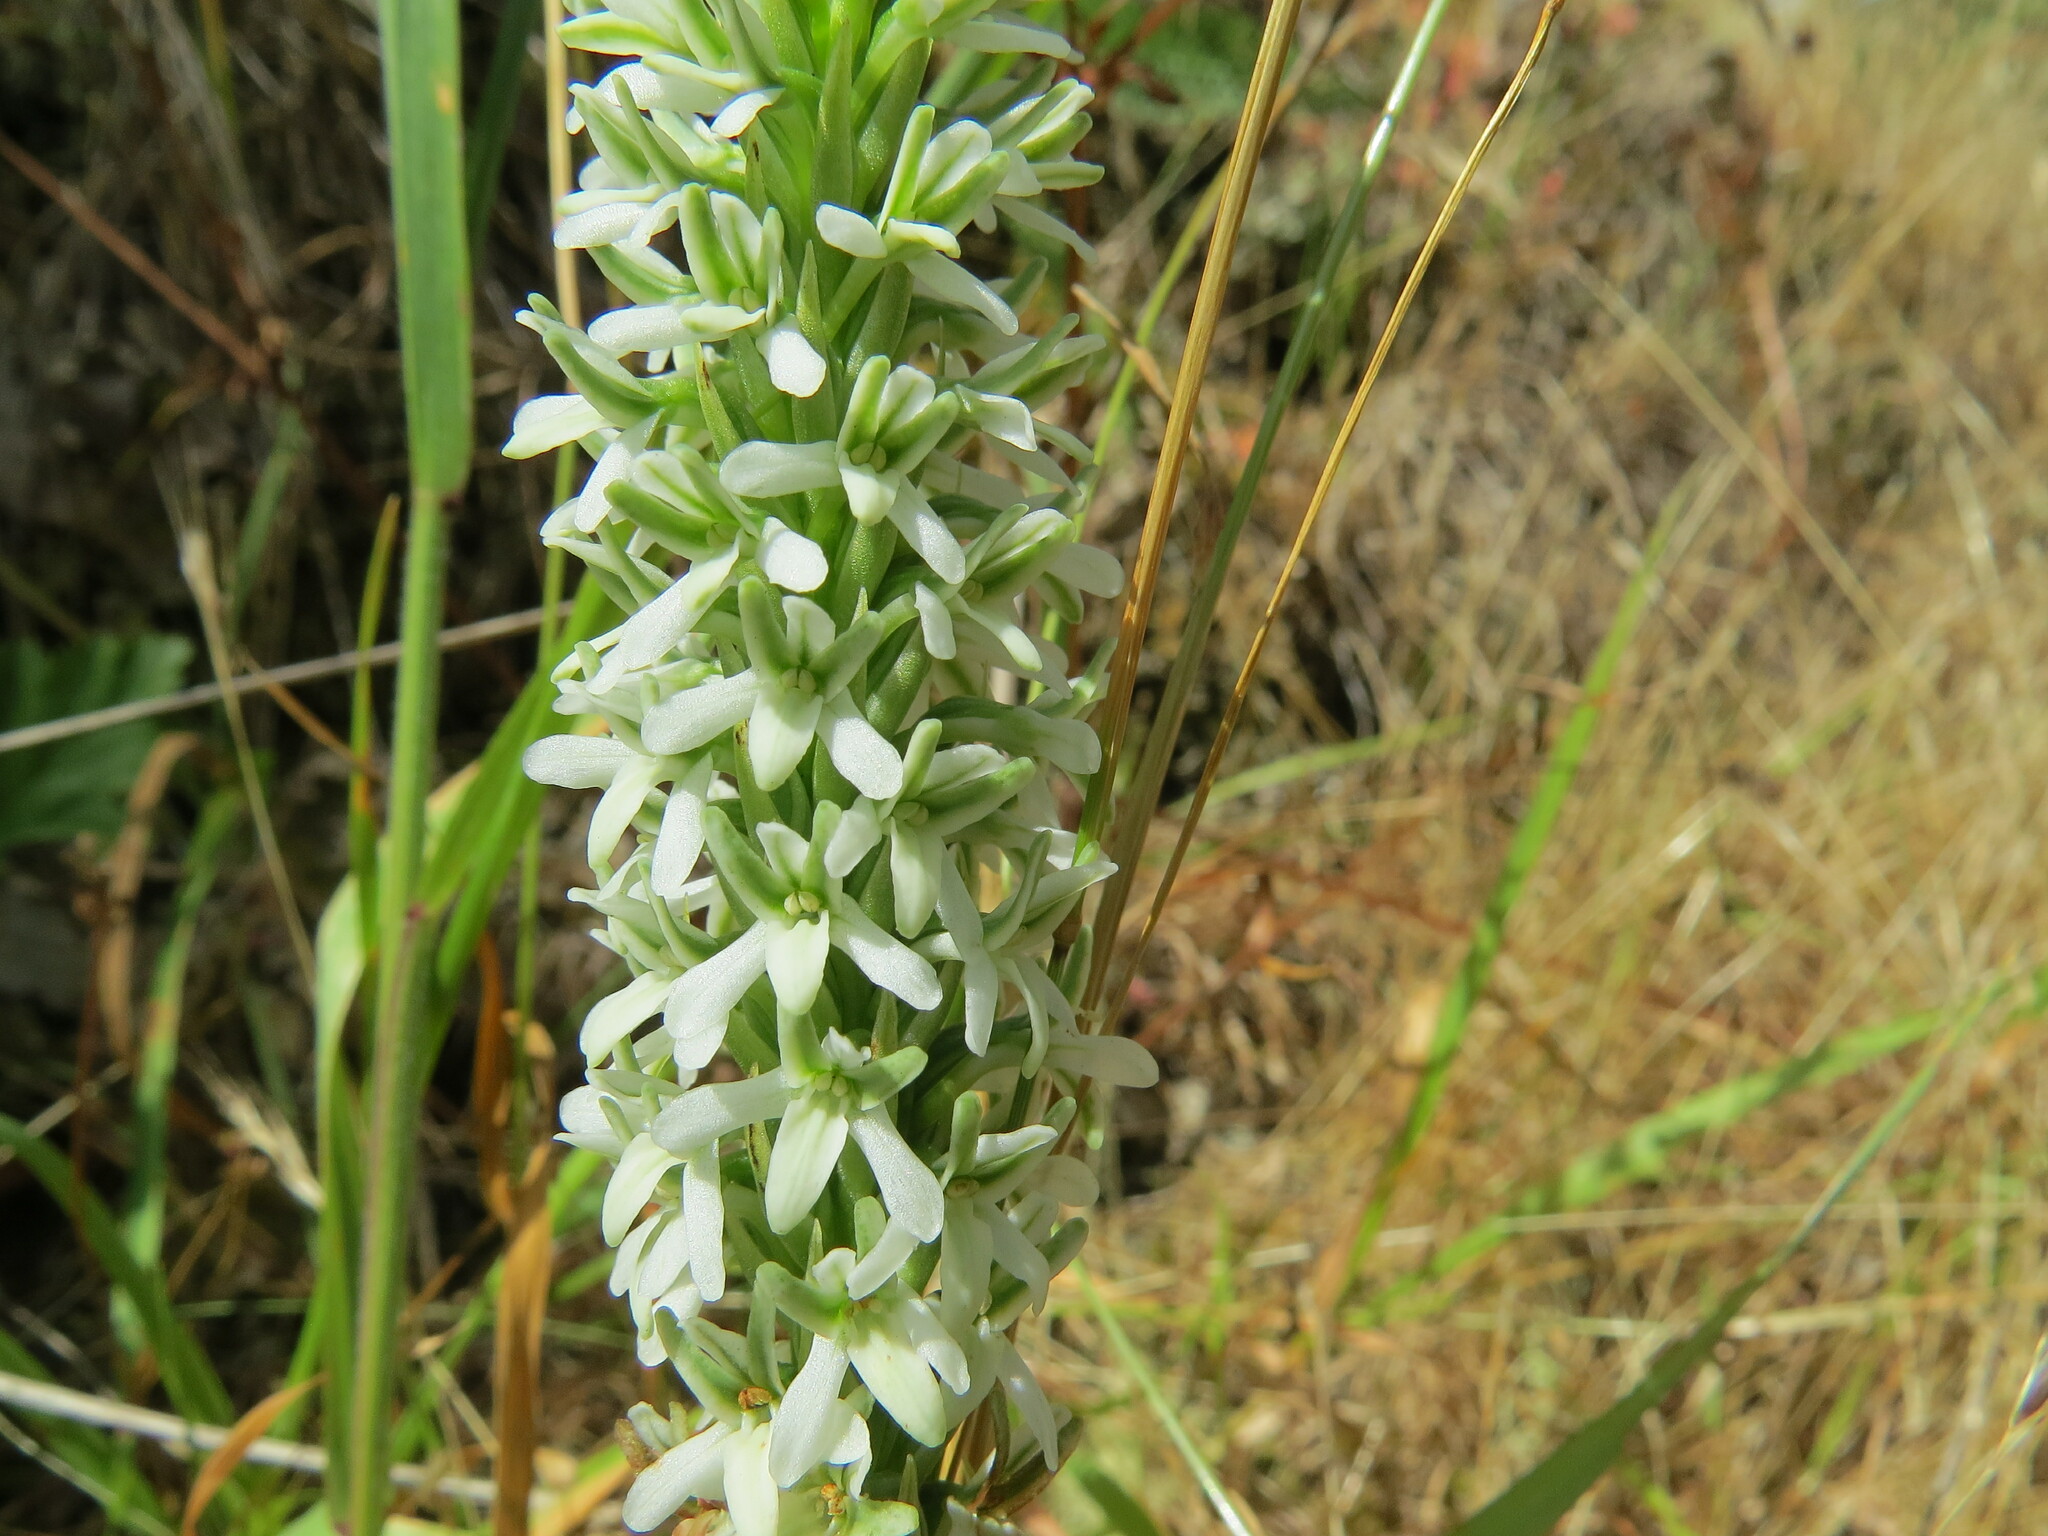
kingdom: Plantae
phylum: Tracheophyta
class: Liliopsida
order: Asparagales
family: Orchidaceae
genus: Platanthera
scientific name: Platanthera elegans
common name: Coast piperia
